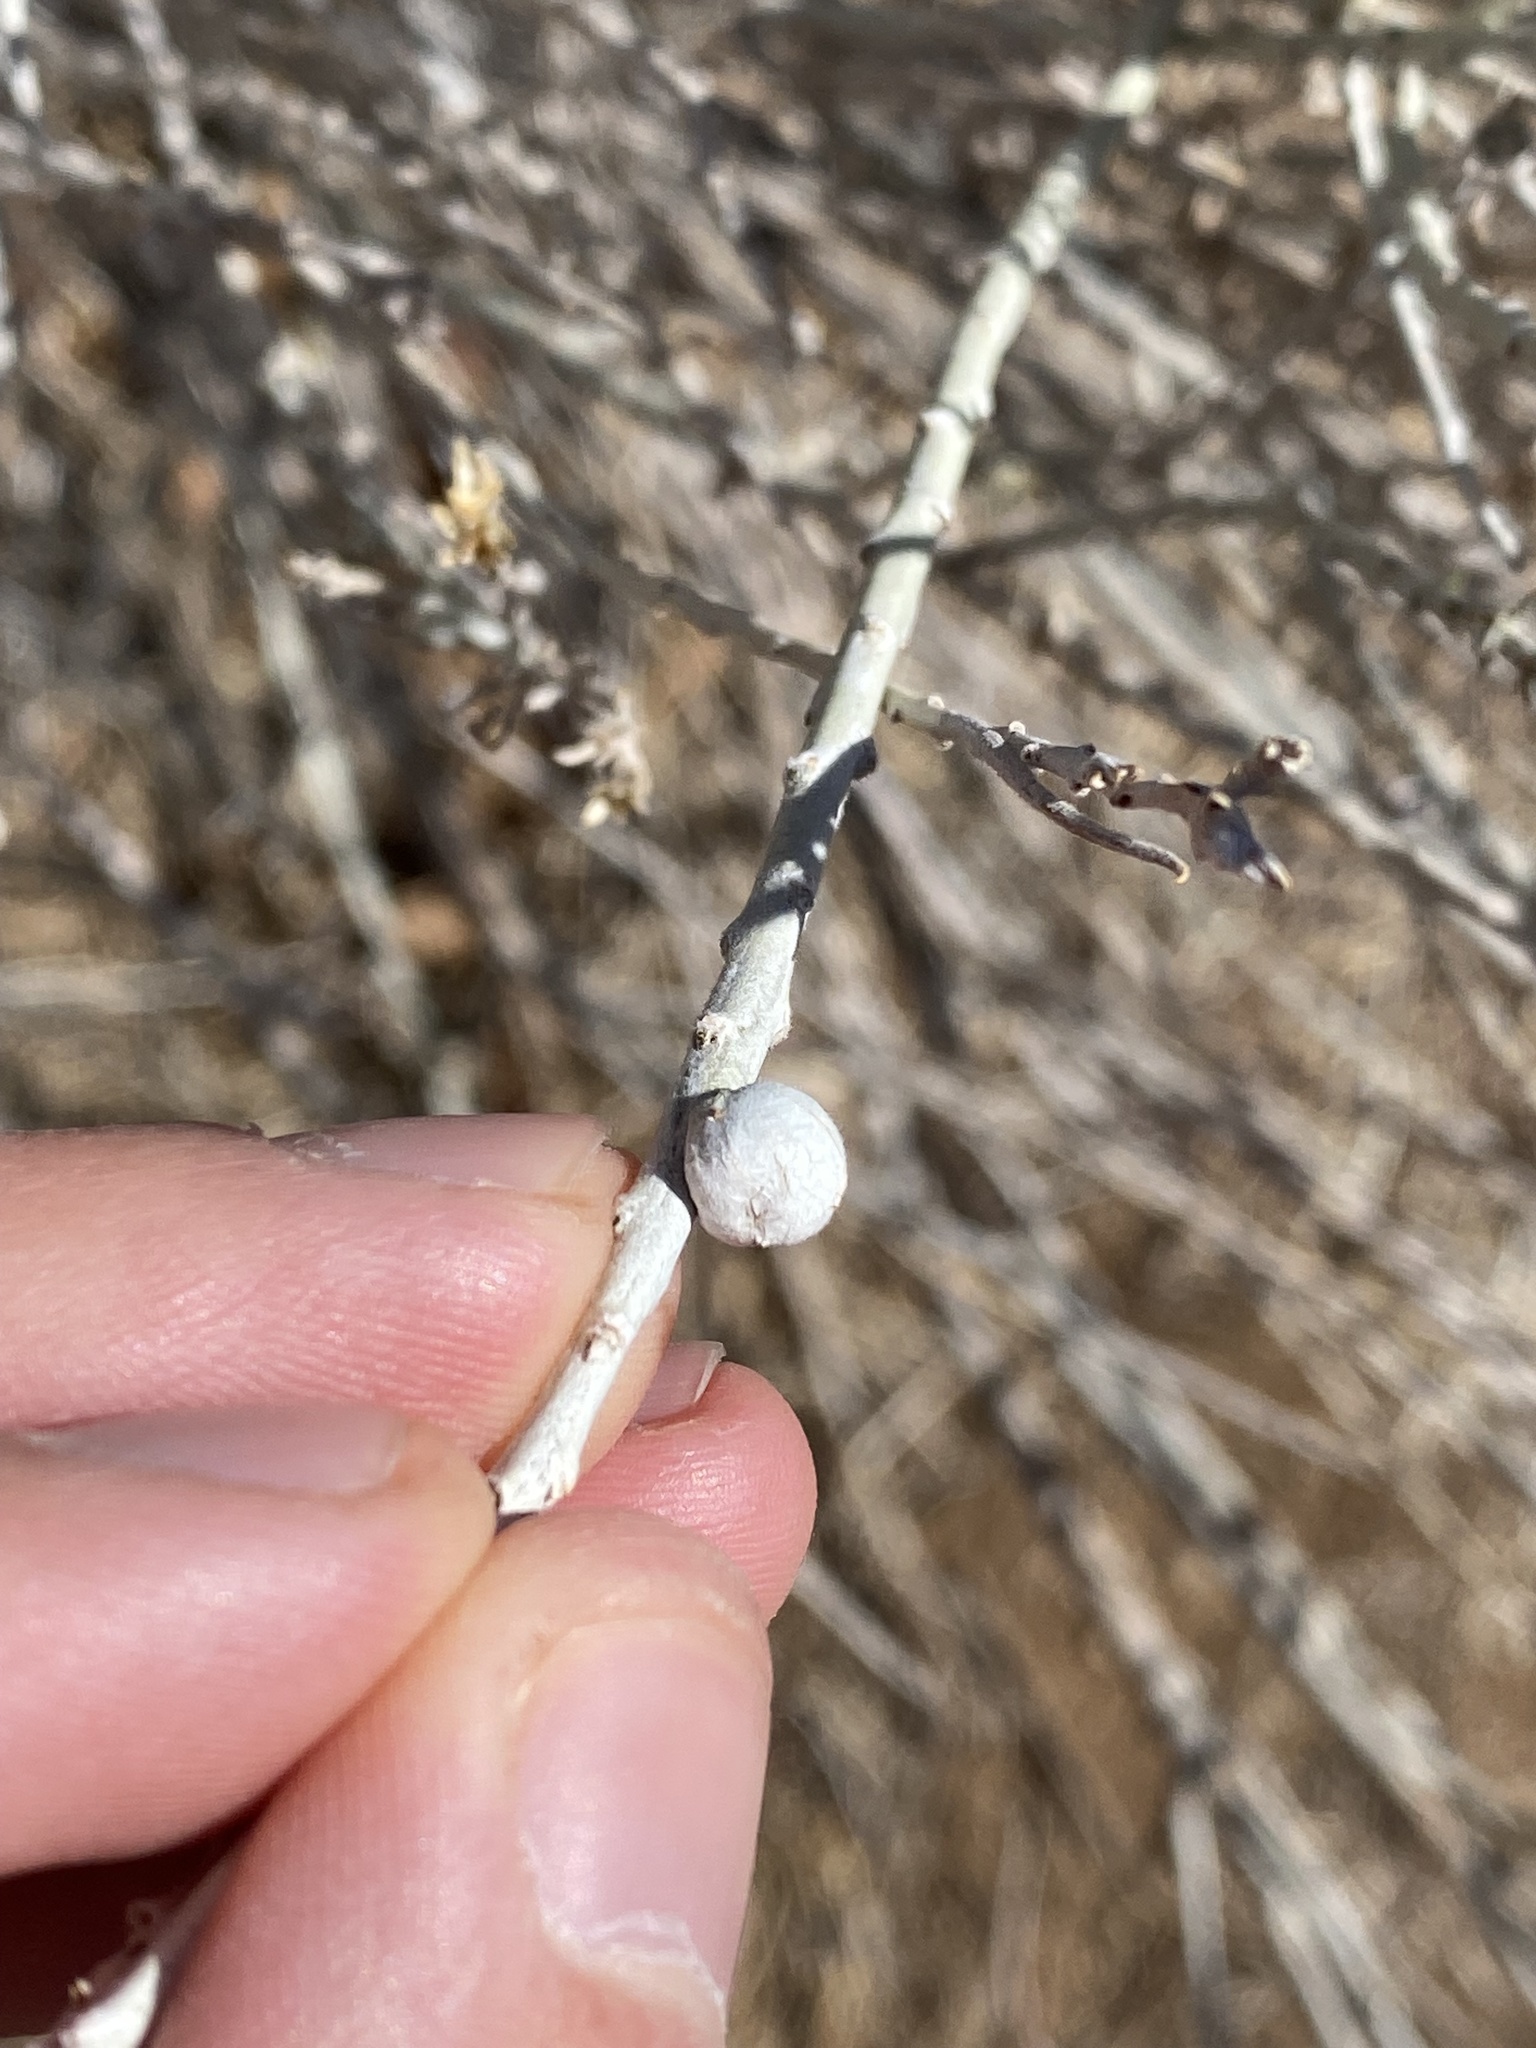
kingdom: Animalia
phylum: Arthropoda
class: Insecta
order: Diptera
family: Tephritidae
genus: Aciurina
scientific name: Aciurina trixa
